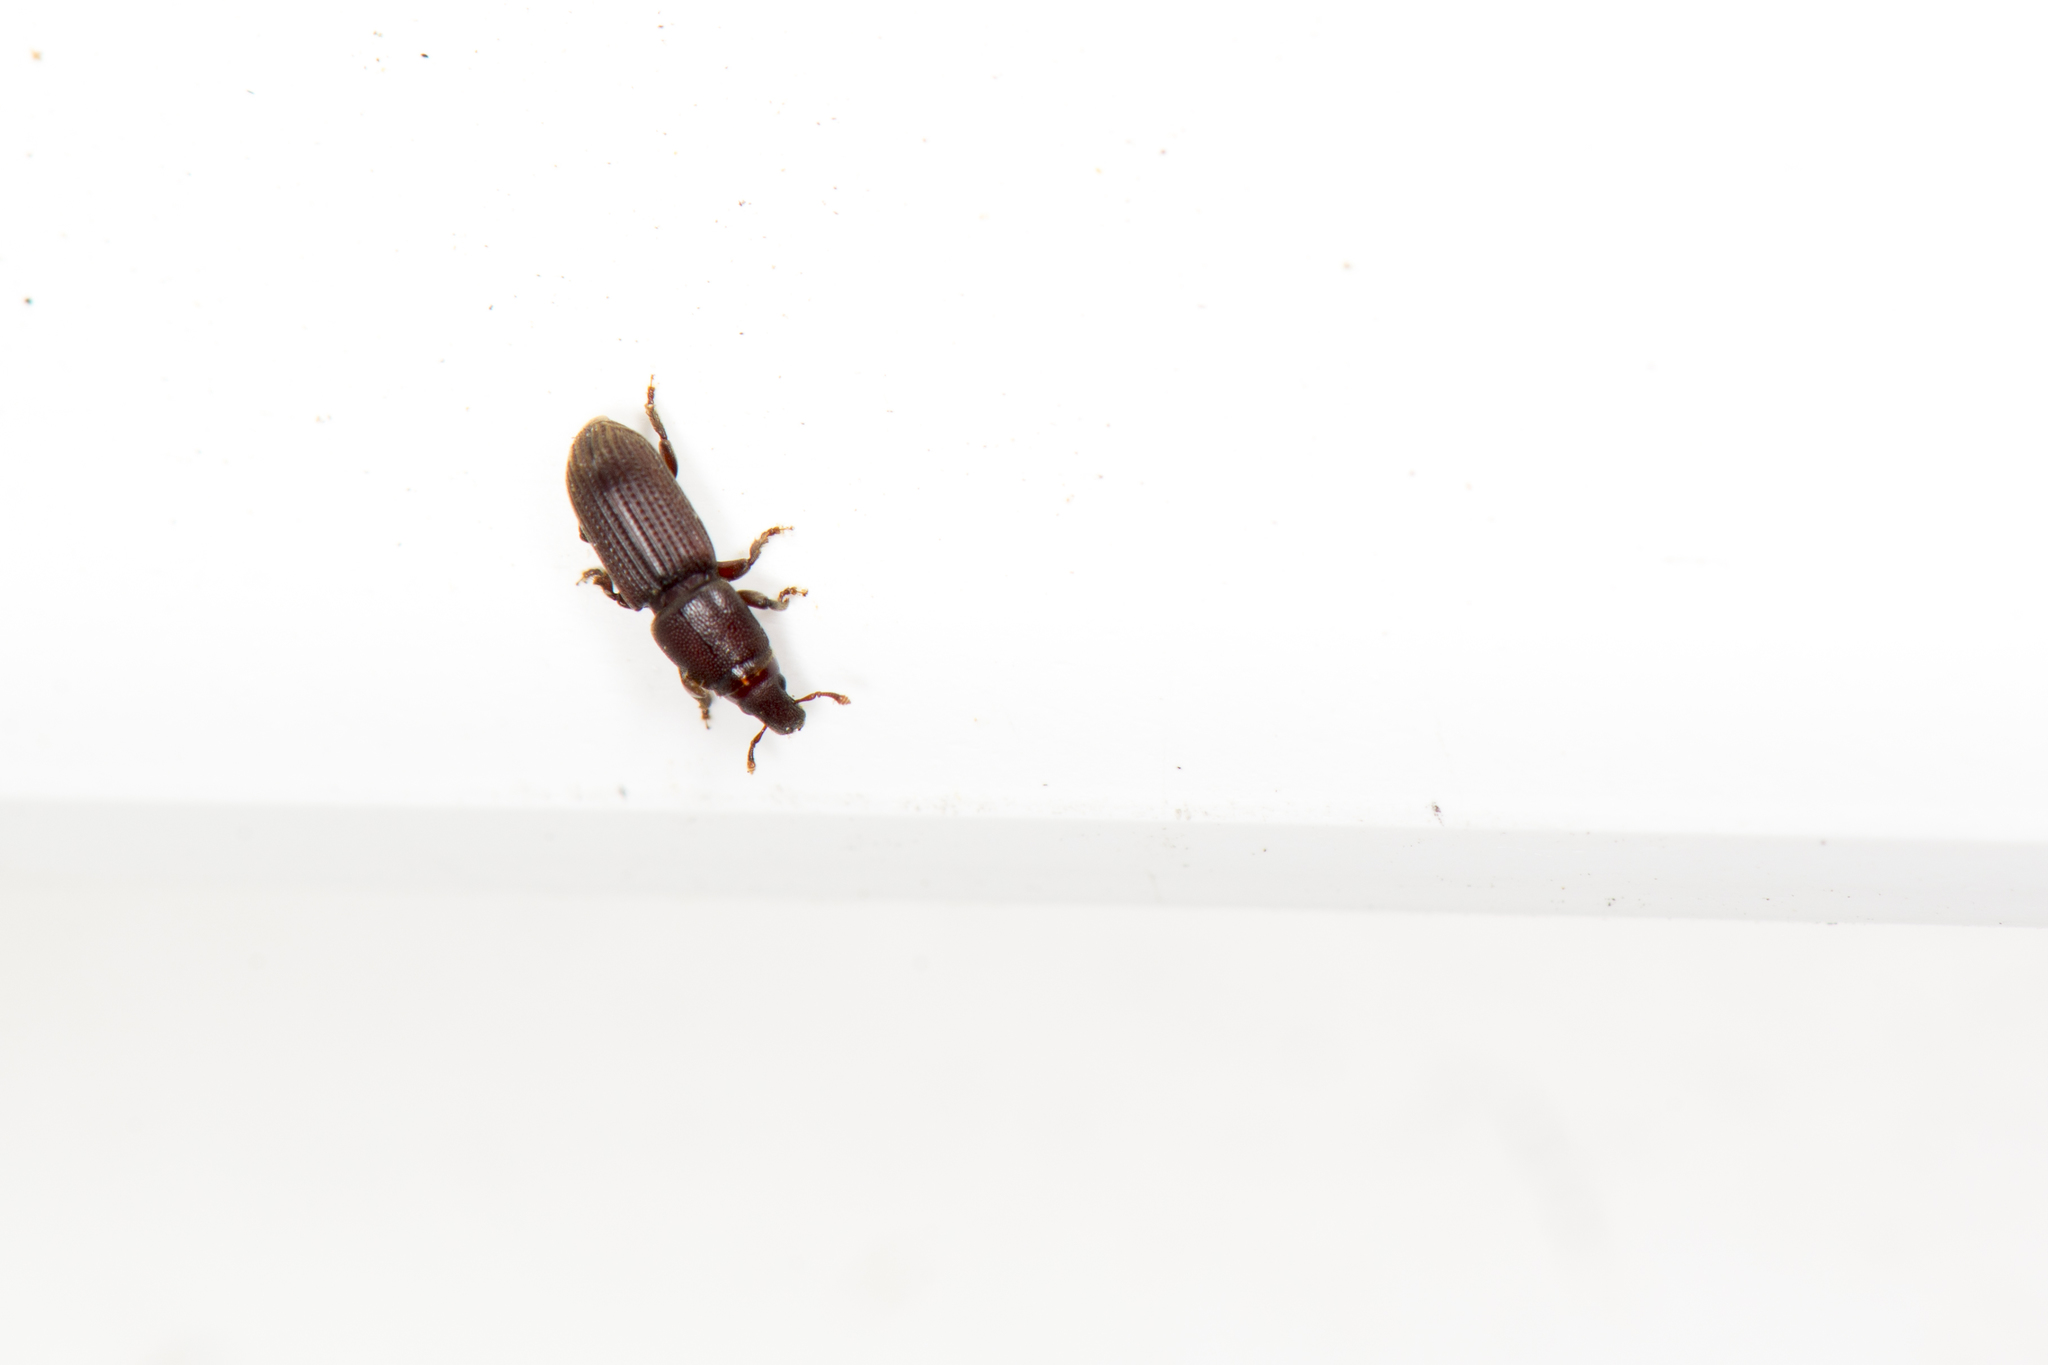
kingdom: Animalia
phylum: Arthropoda
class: Insecta
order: Coleoptera
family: Curculionidae
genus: Xenocnema
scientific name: Xenocnema spinipes
